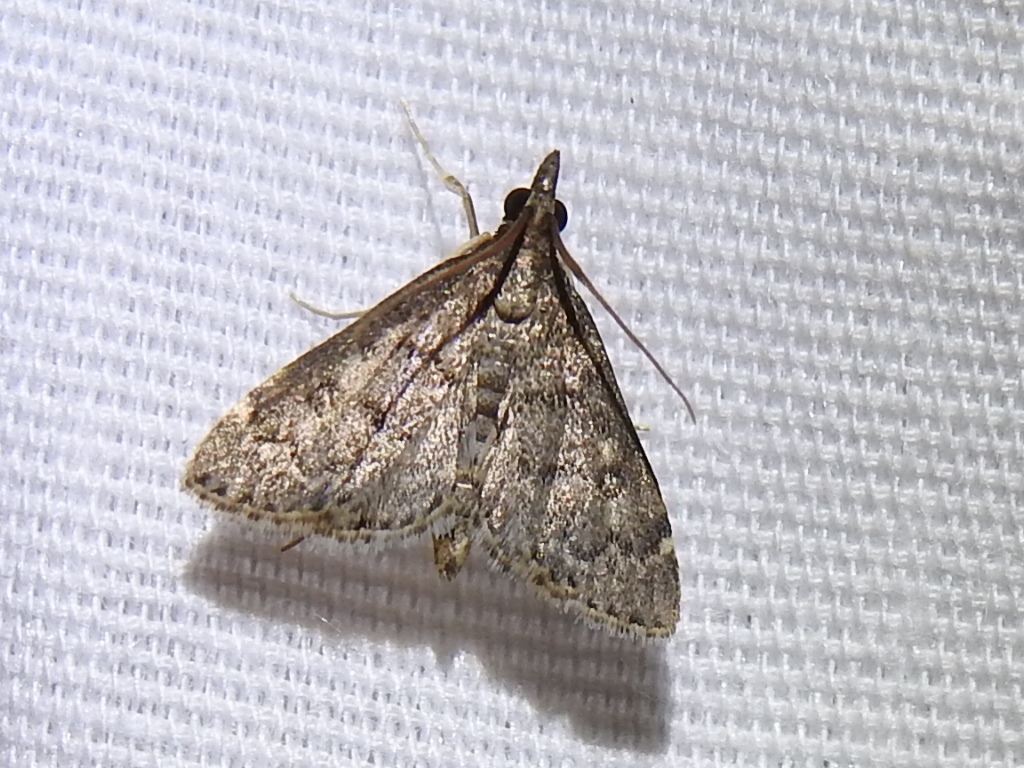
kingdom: Animalia
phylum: Arthropoda
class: Insecta
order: Lepidoptera
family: Crambidae
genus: Steniodes
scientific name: Steniodes declivalis
